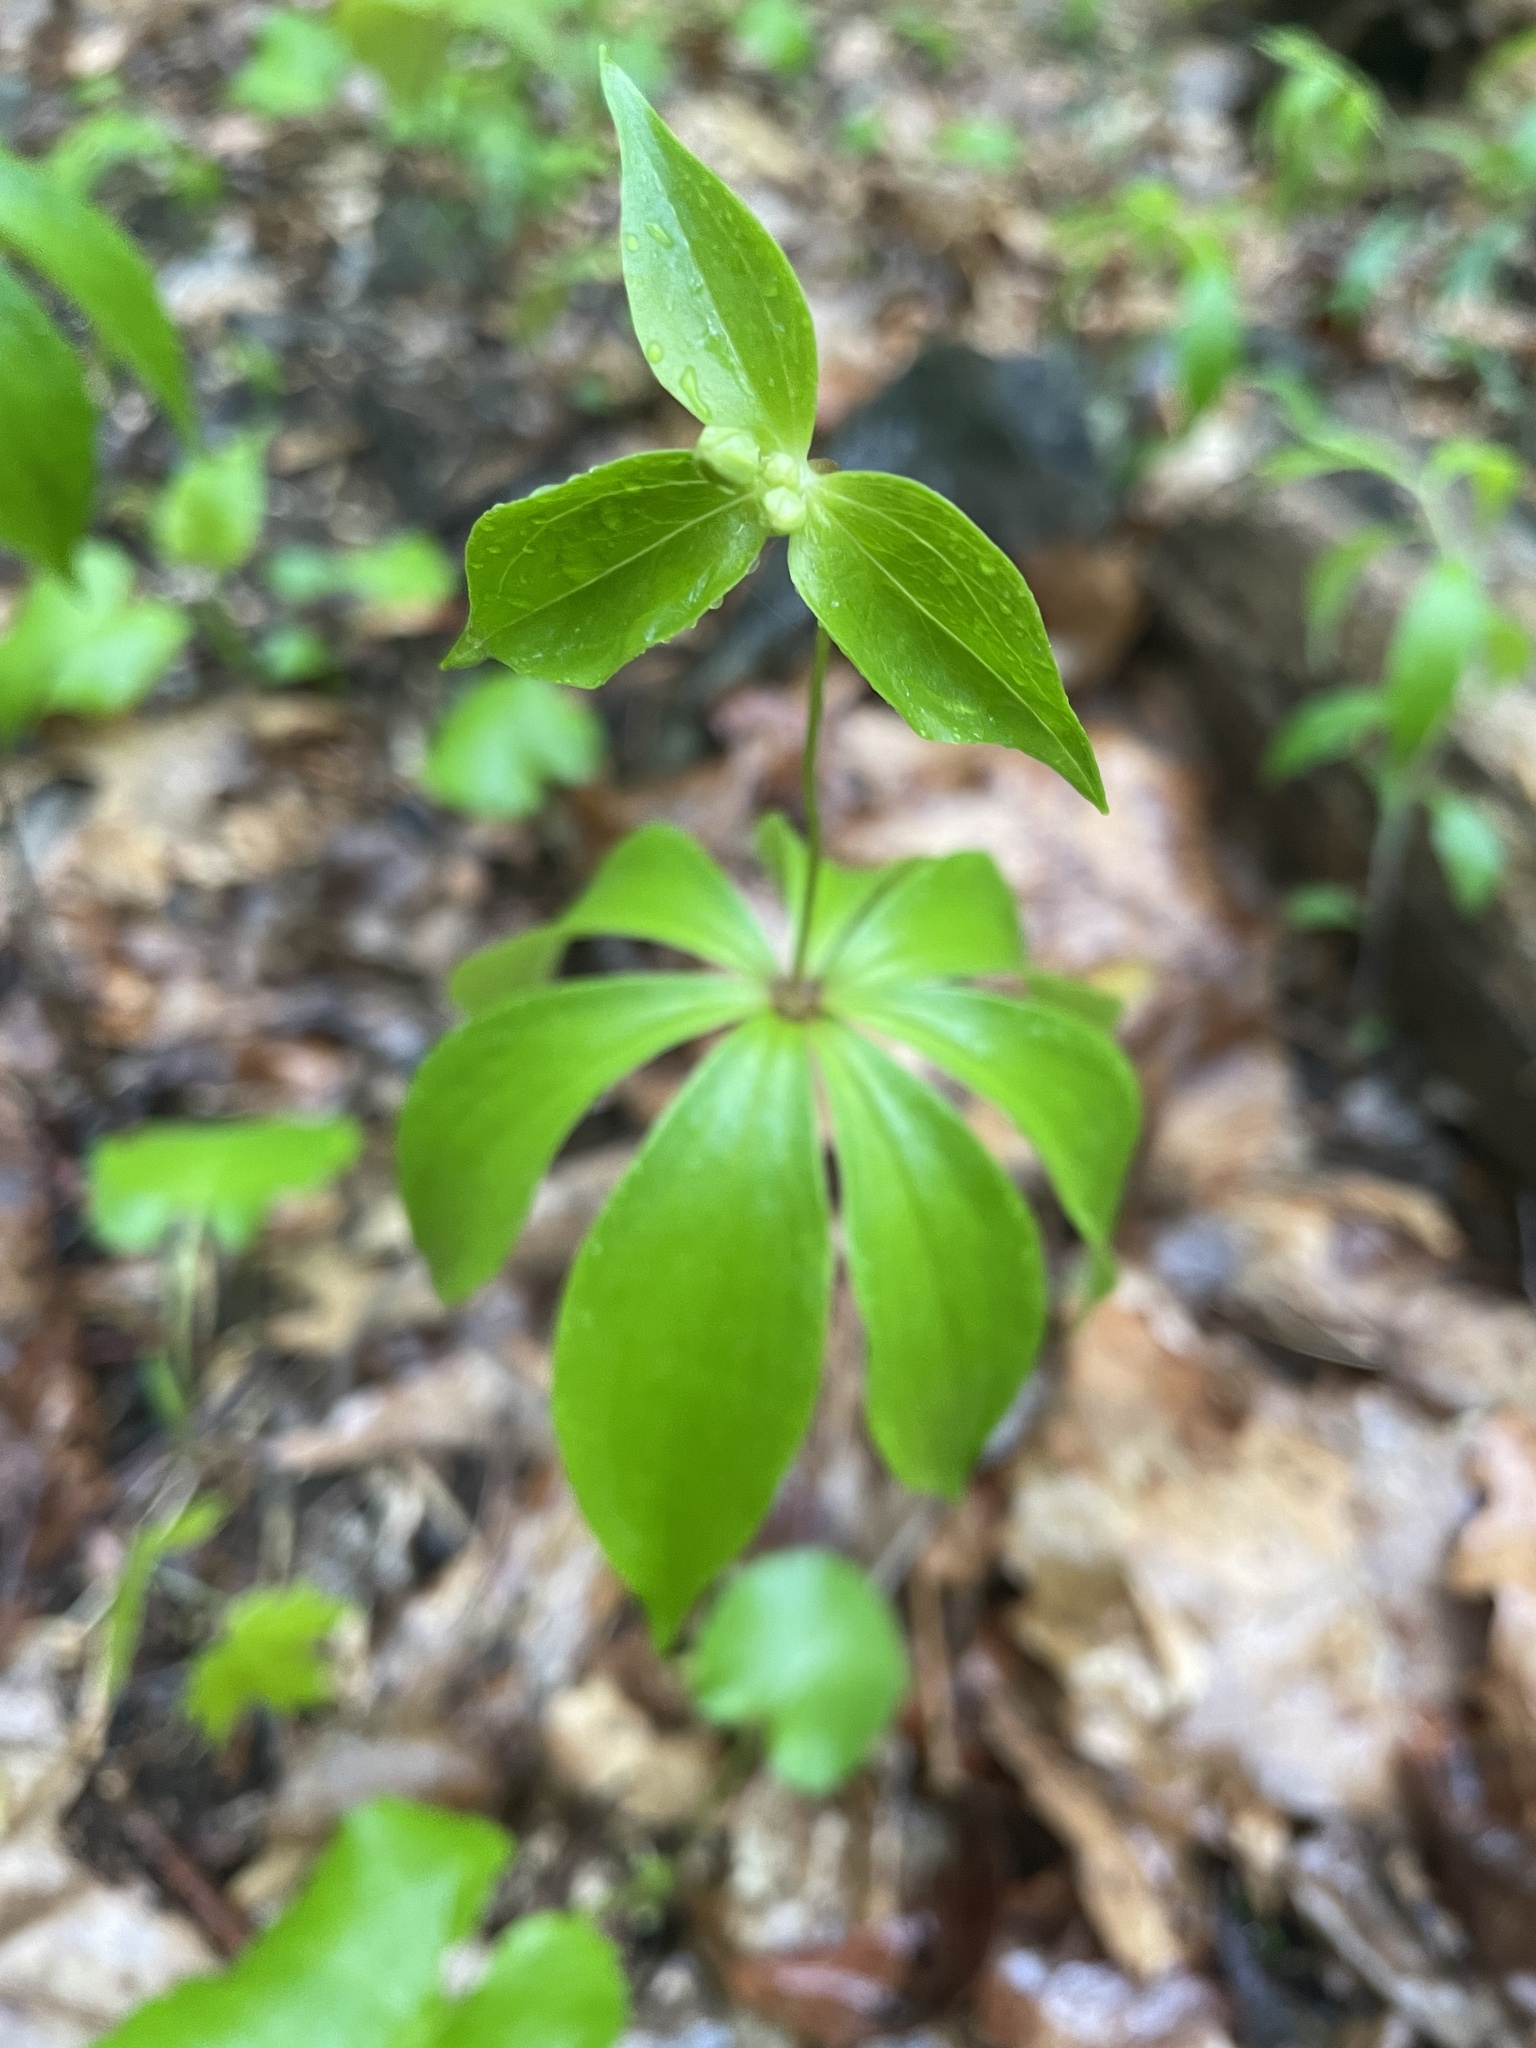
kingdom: Plantae
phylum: Tracheophyta
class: Liliopsida
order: Liliales
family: Liliaceae
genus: Medeola
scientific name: Medeola virginiana
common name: Indian cucumber-root
